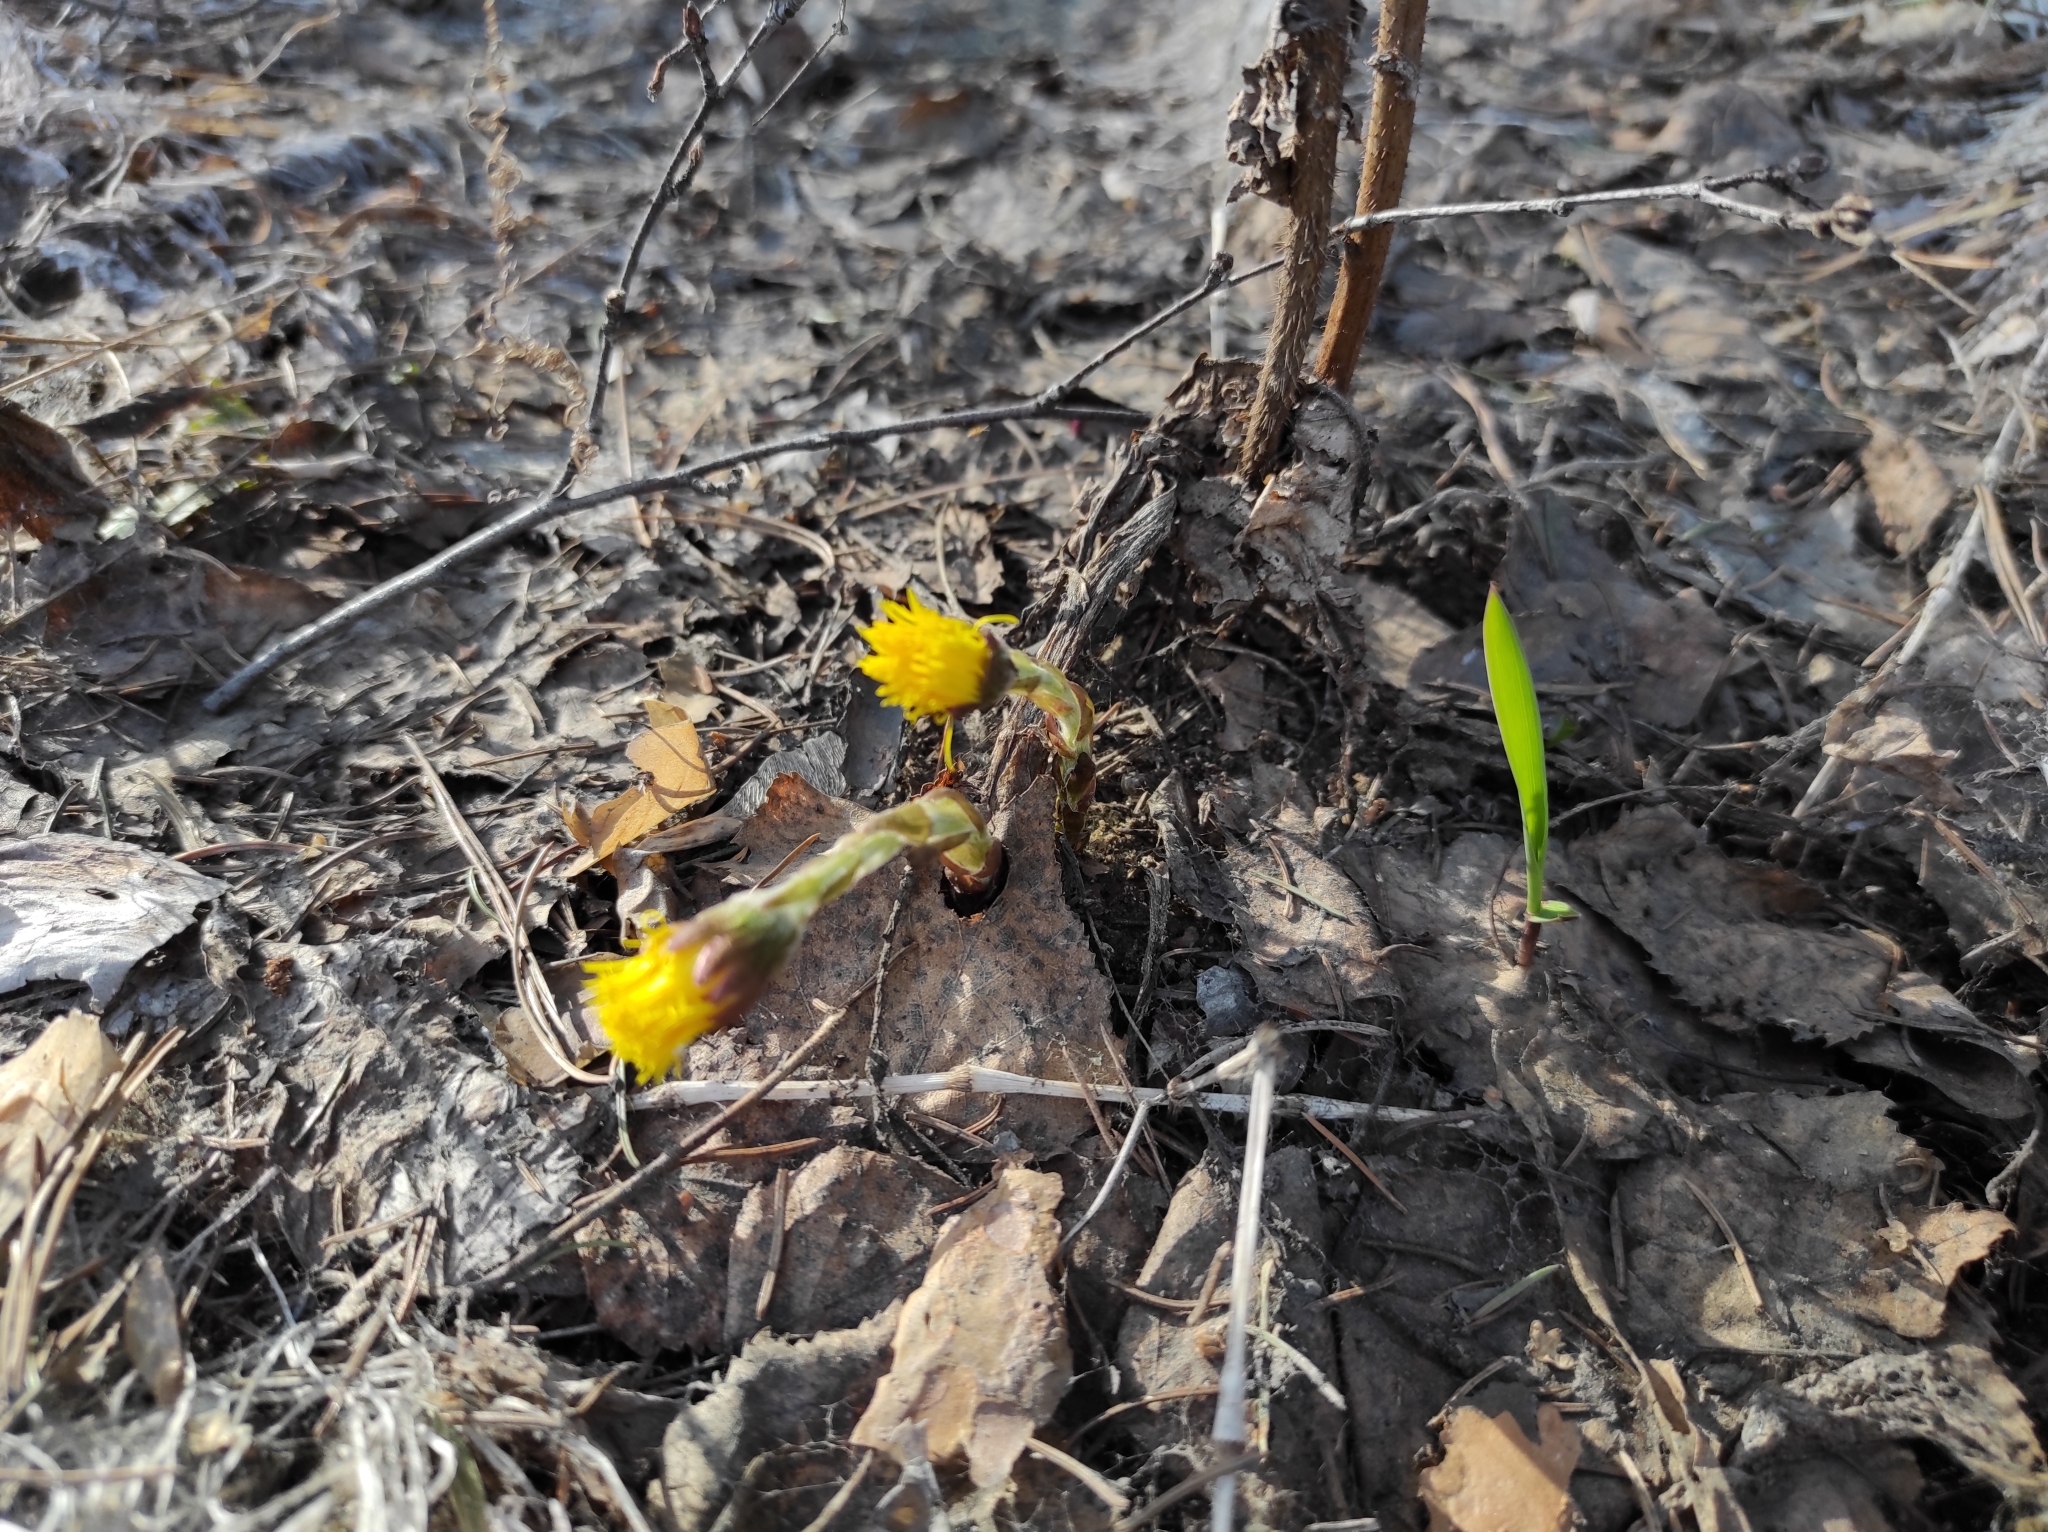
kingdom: Plantae
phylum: Tracheophyta
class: Magnoliopsida
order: Asterales
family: Asteraceae
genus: Tussilago
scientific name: Tussilago farfara
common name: Coltsfoot
